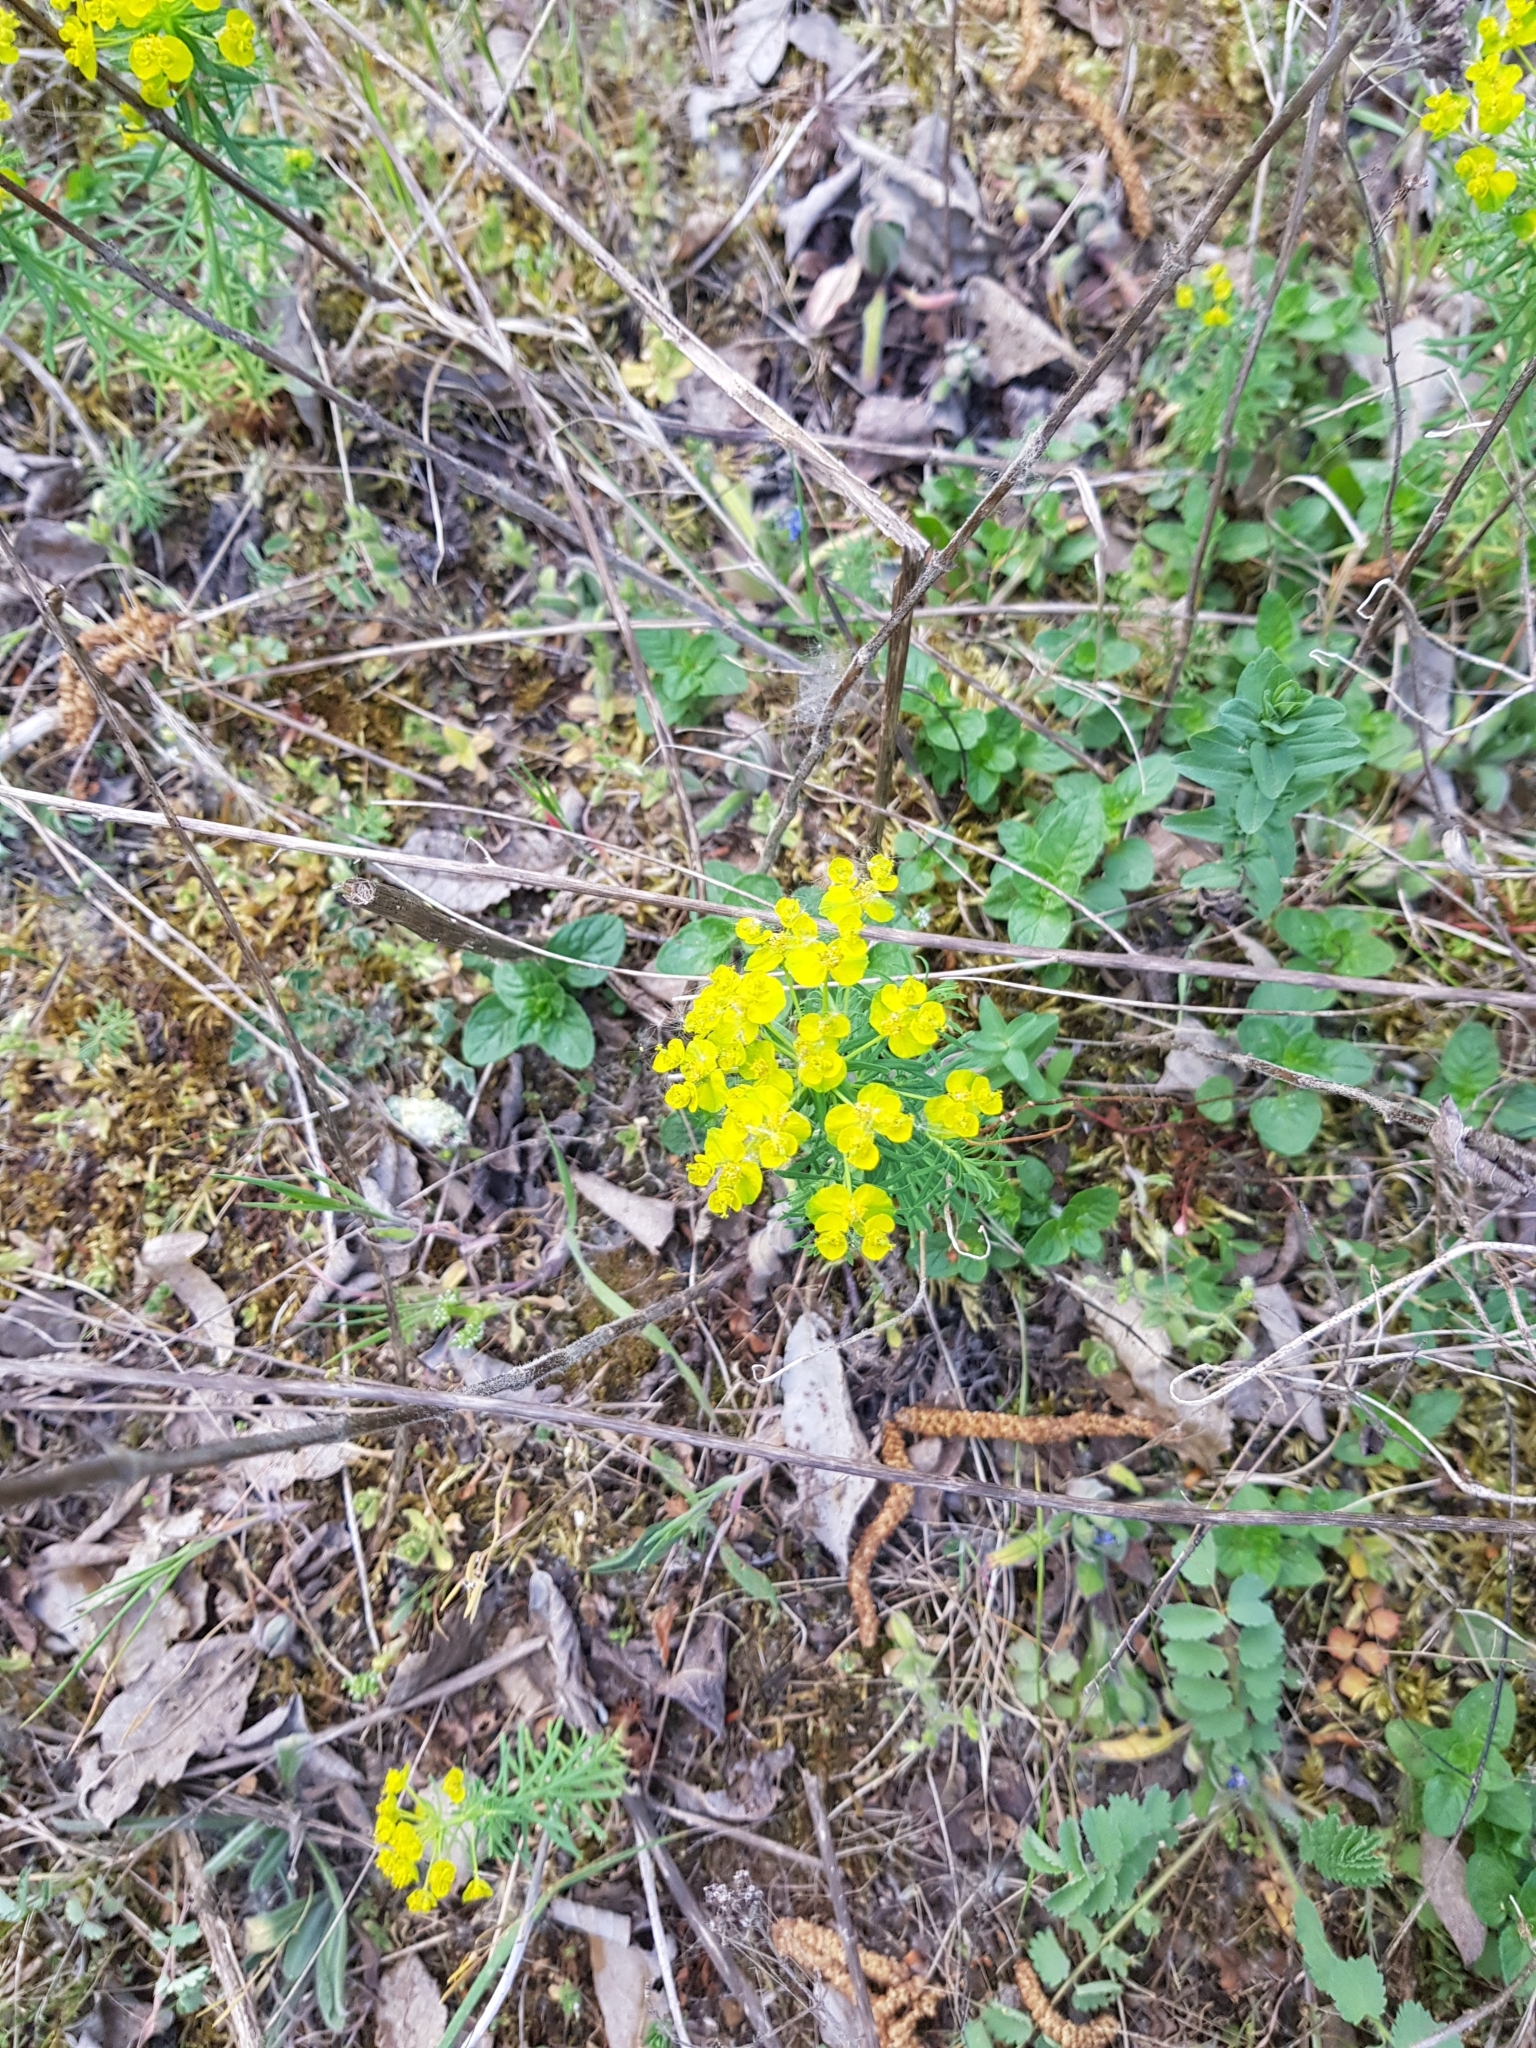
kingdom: Plantae
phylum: Tracheophyta
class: Magnoliopsida
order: Malpighiales
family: Euphorbiaceae
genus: Euphorbia
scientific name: Euphorbia cyparissias
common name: Cypress spurge
